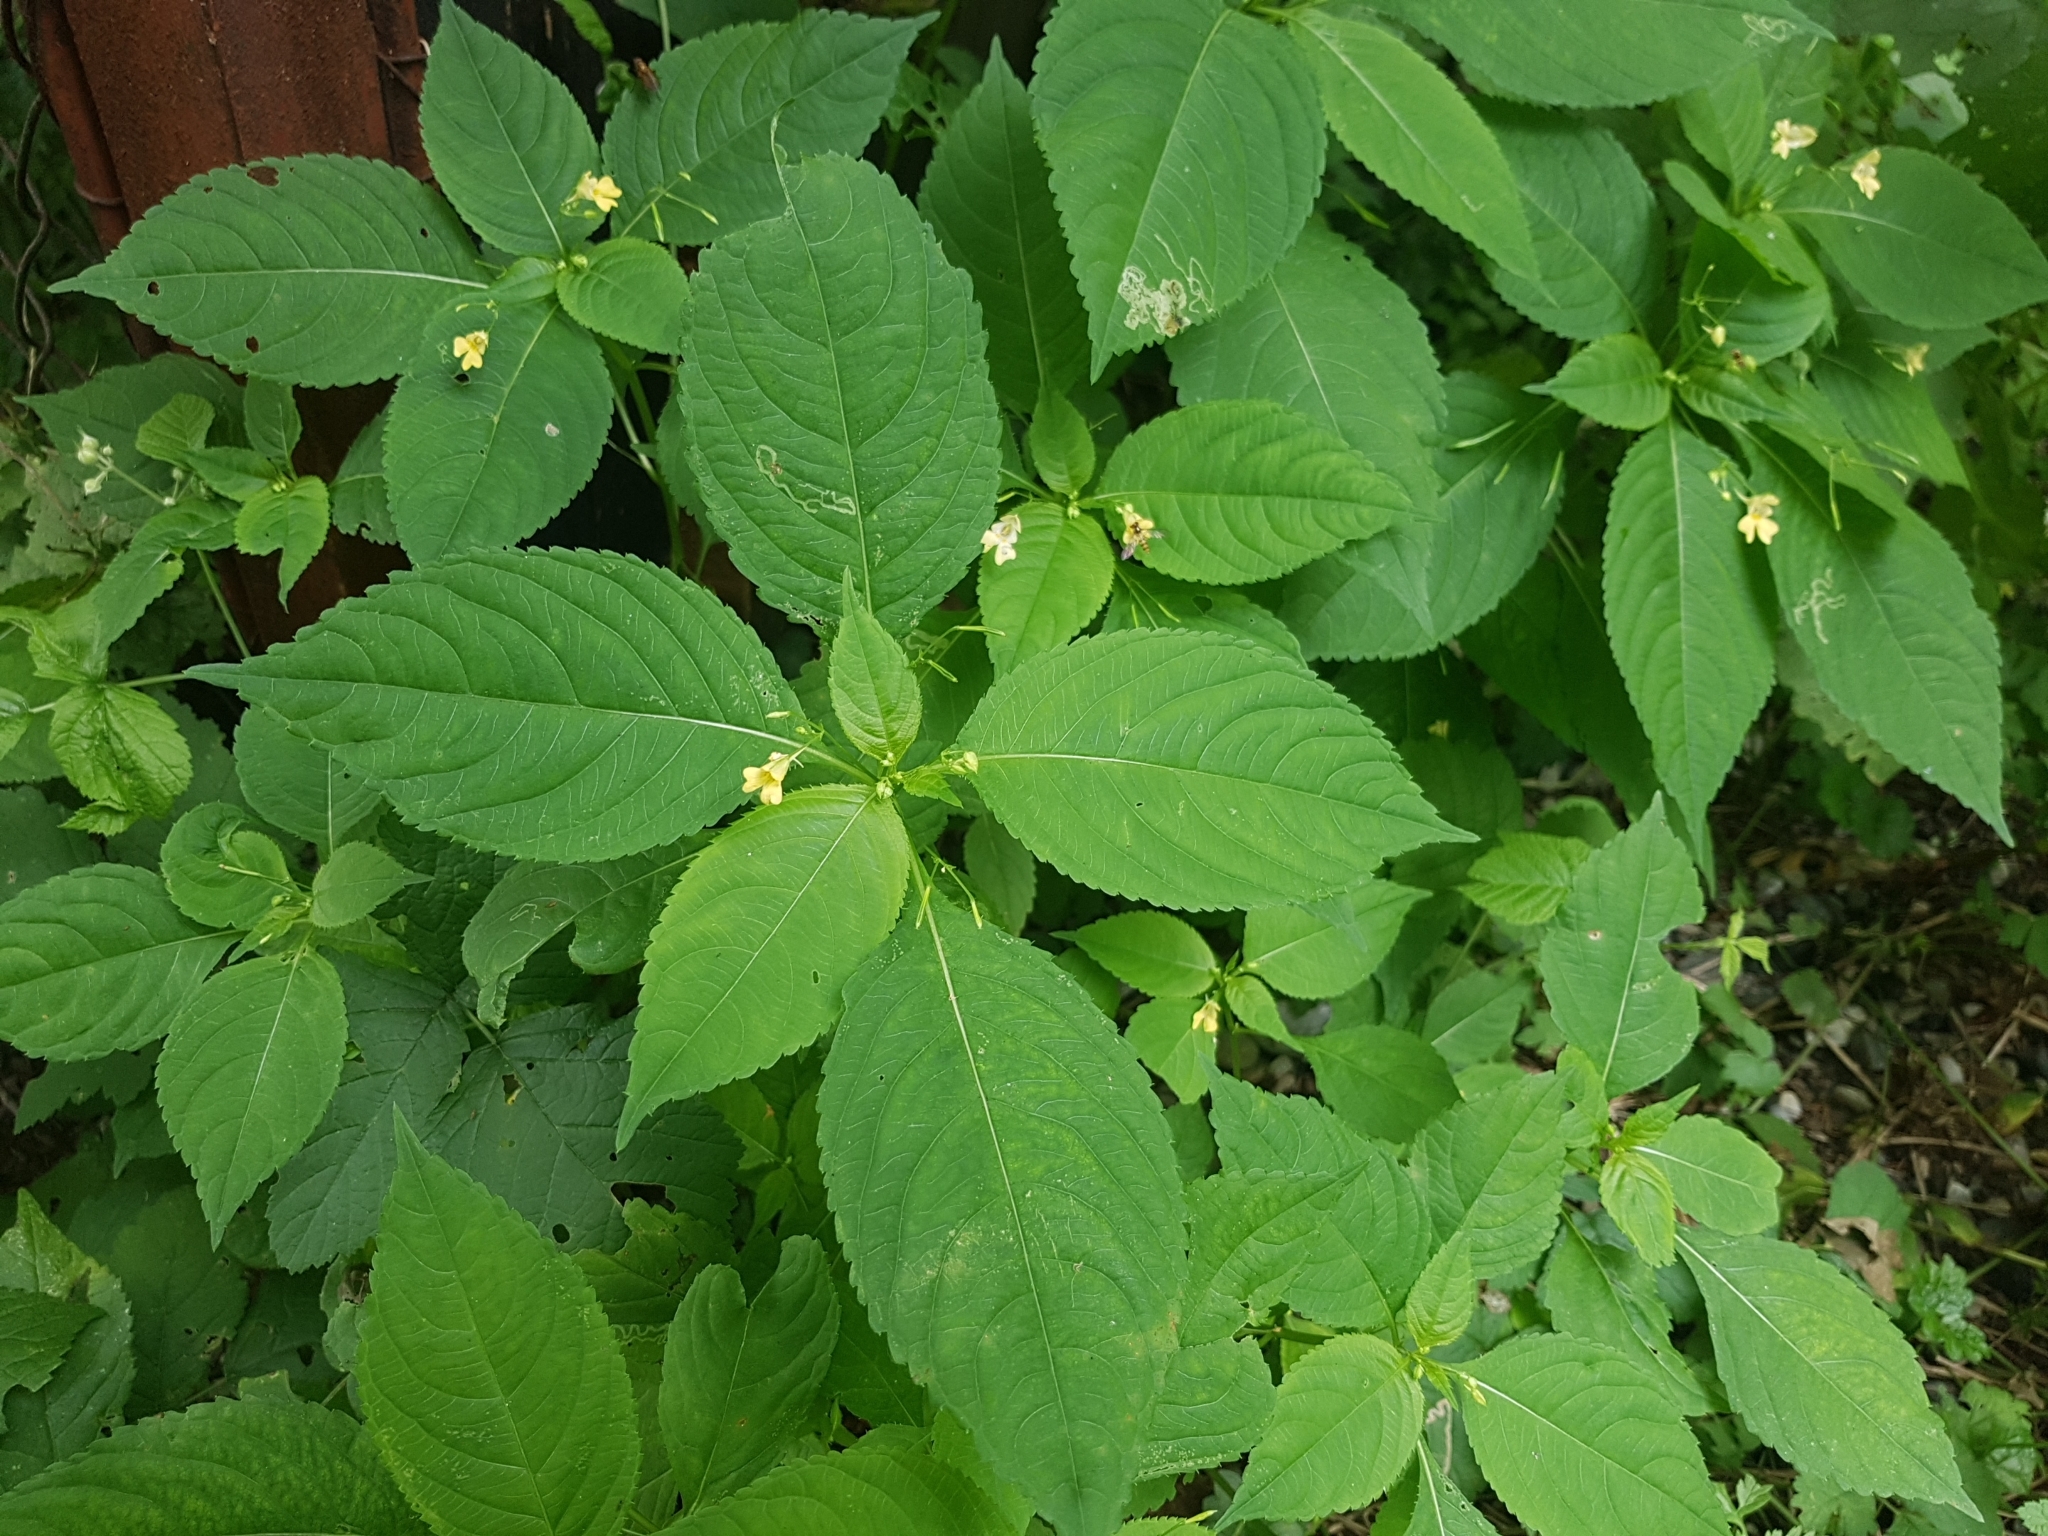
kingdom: Plantae
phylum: Tracheophyta
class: Magnoliopsida
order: Ericales
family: Balsaminaceae
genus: Impatiens
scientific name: Impatiens parviflora
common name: Small balsam
